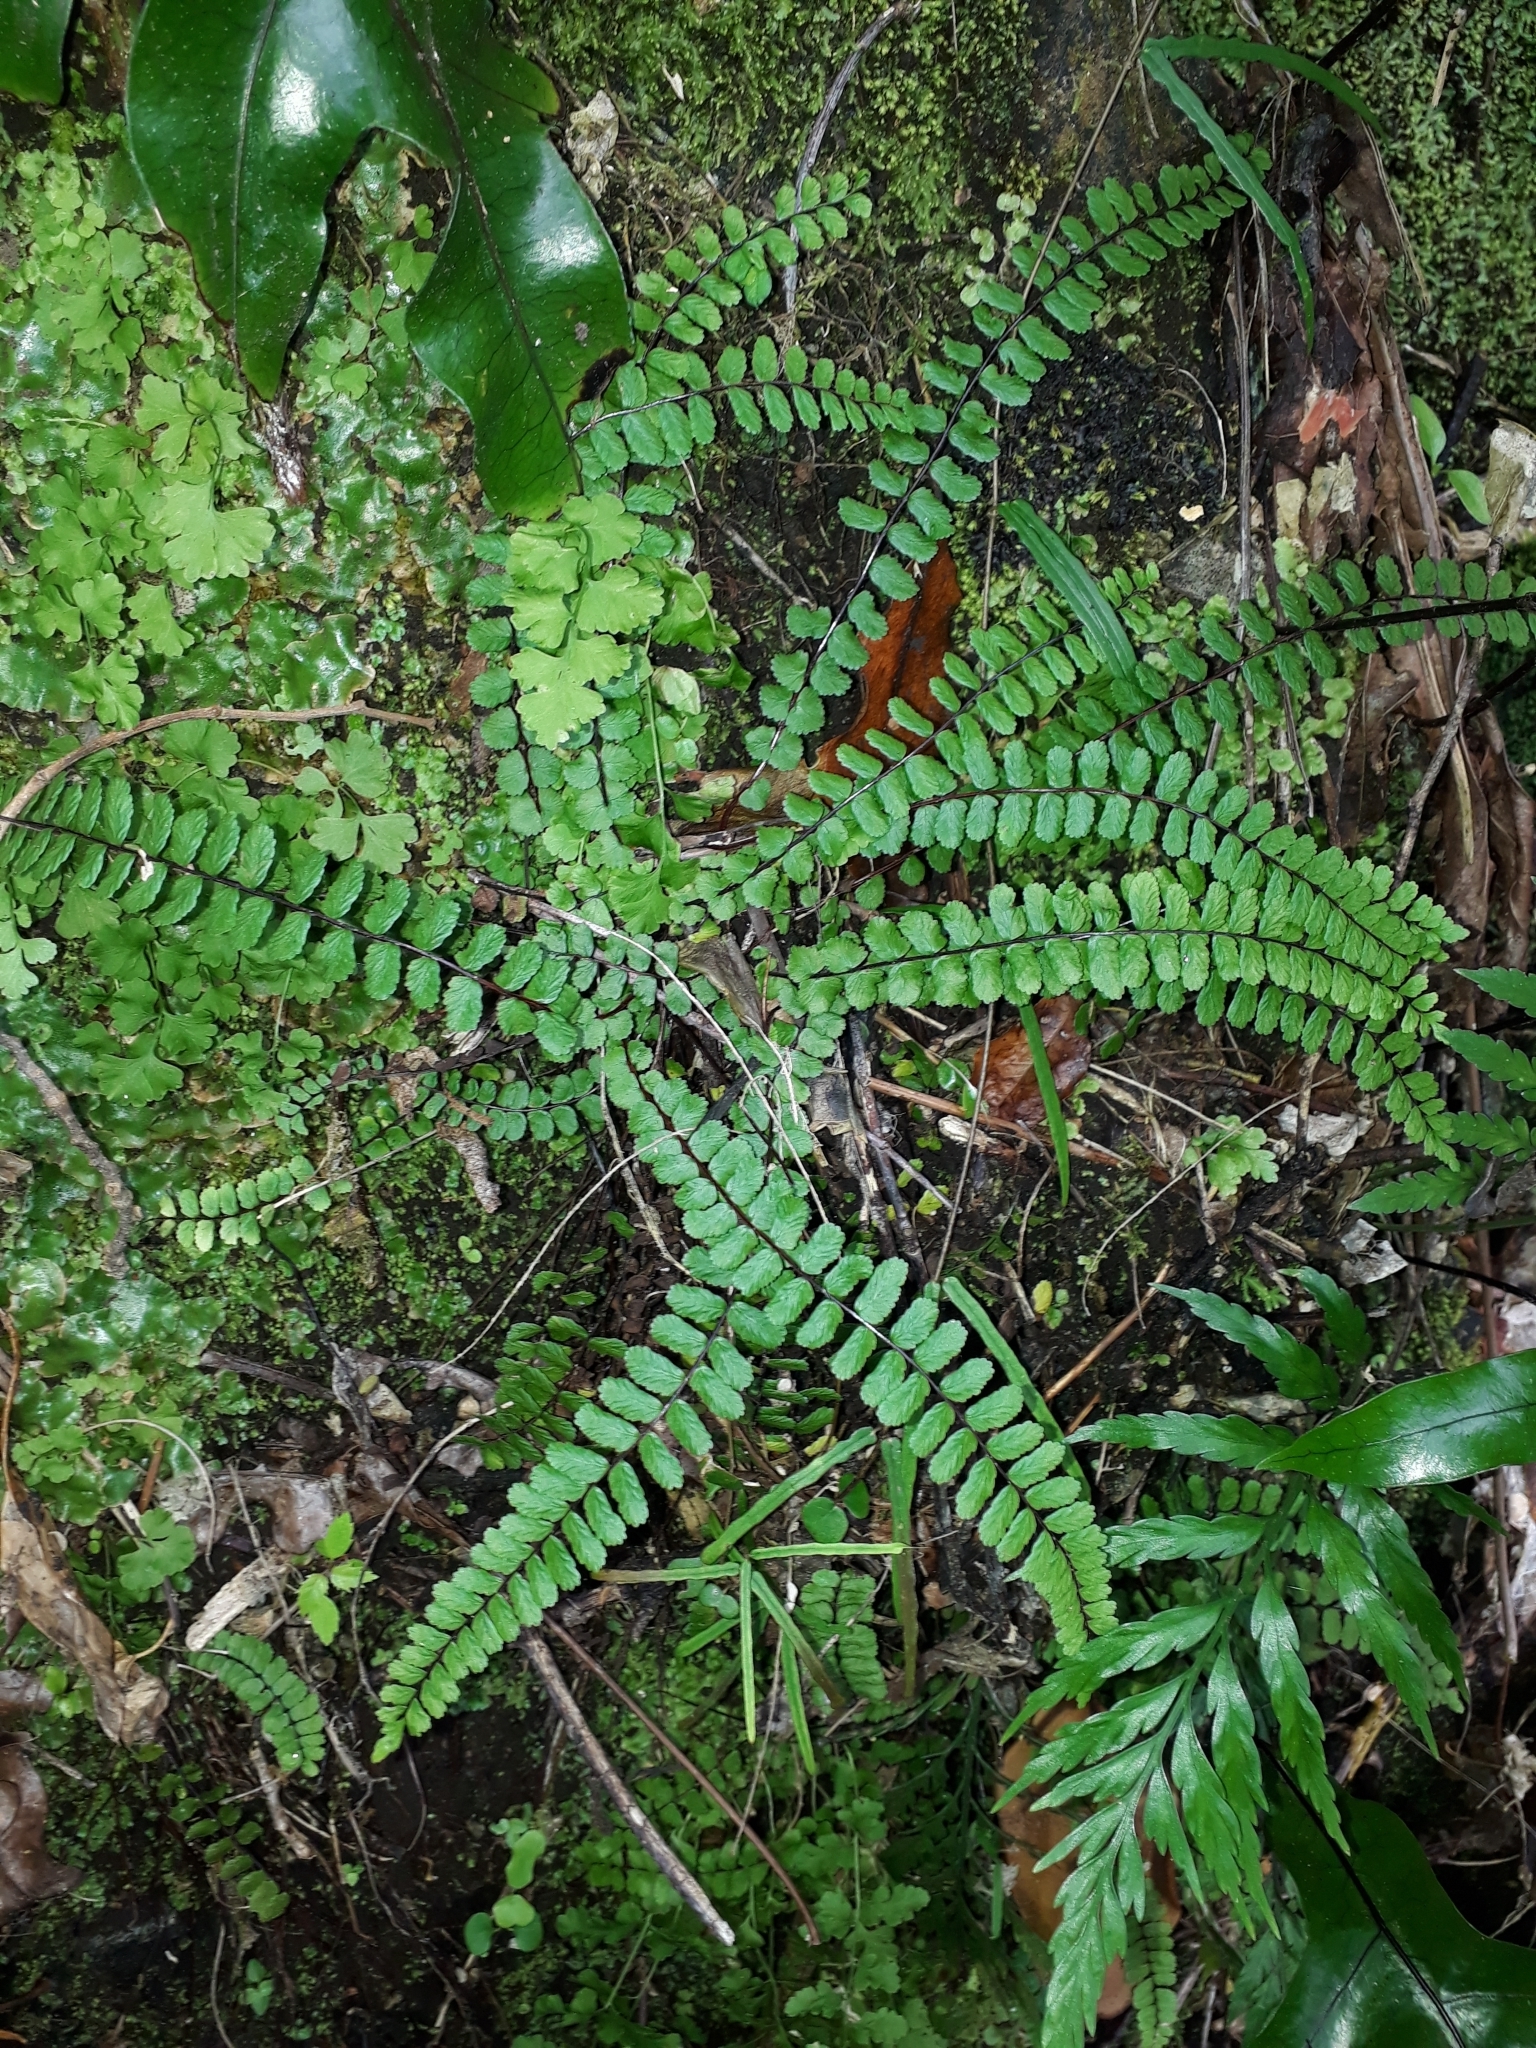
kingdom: Plantae
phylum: Tracheophyta
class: Polypodiopsida
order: Polypodiales
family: Aspleniaceae
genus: Asplenium
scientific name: Asplenium trichomanes
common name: Maidenhair spleenwort
